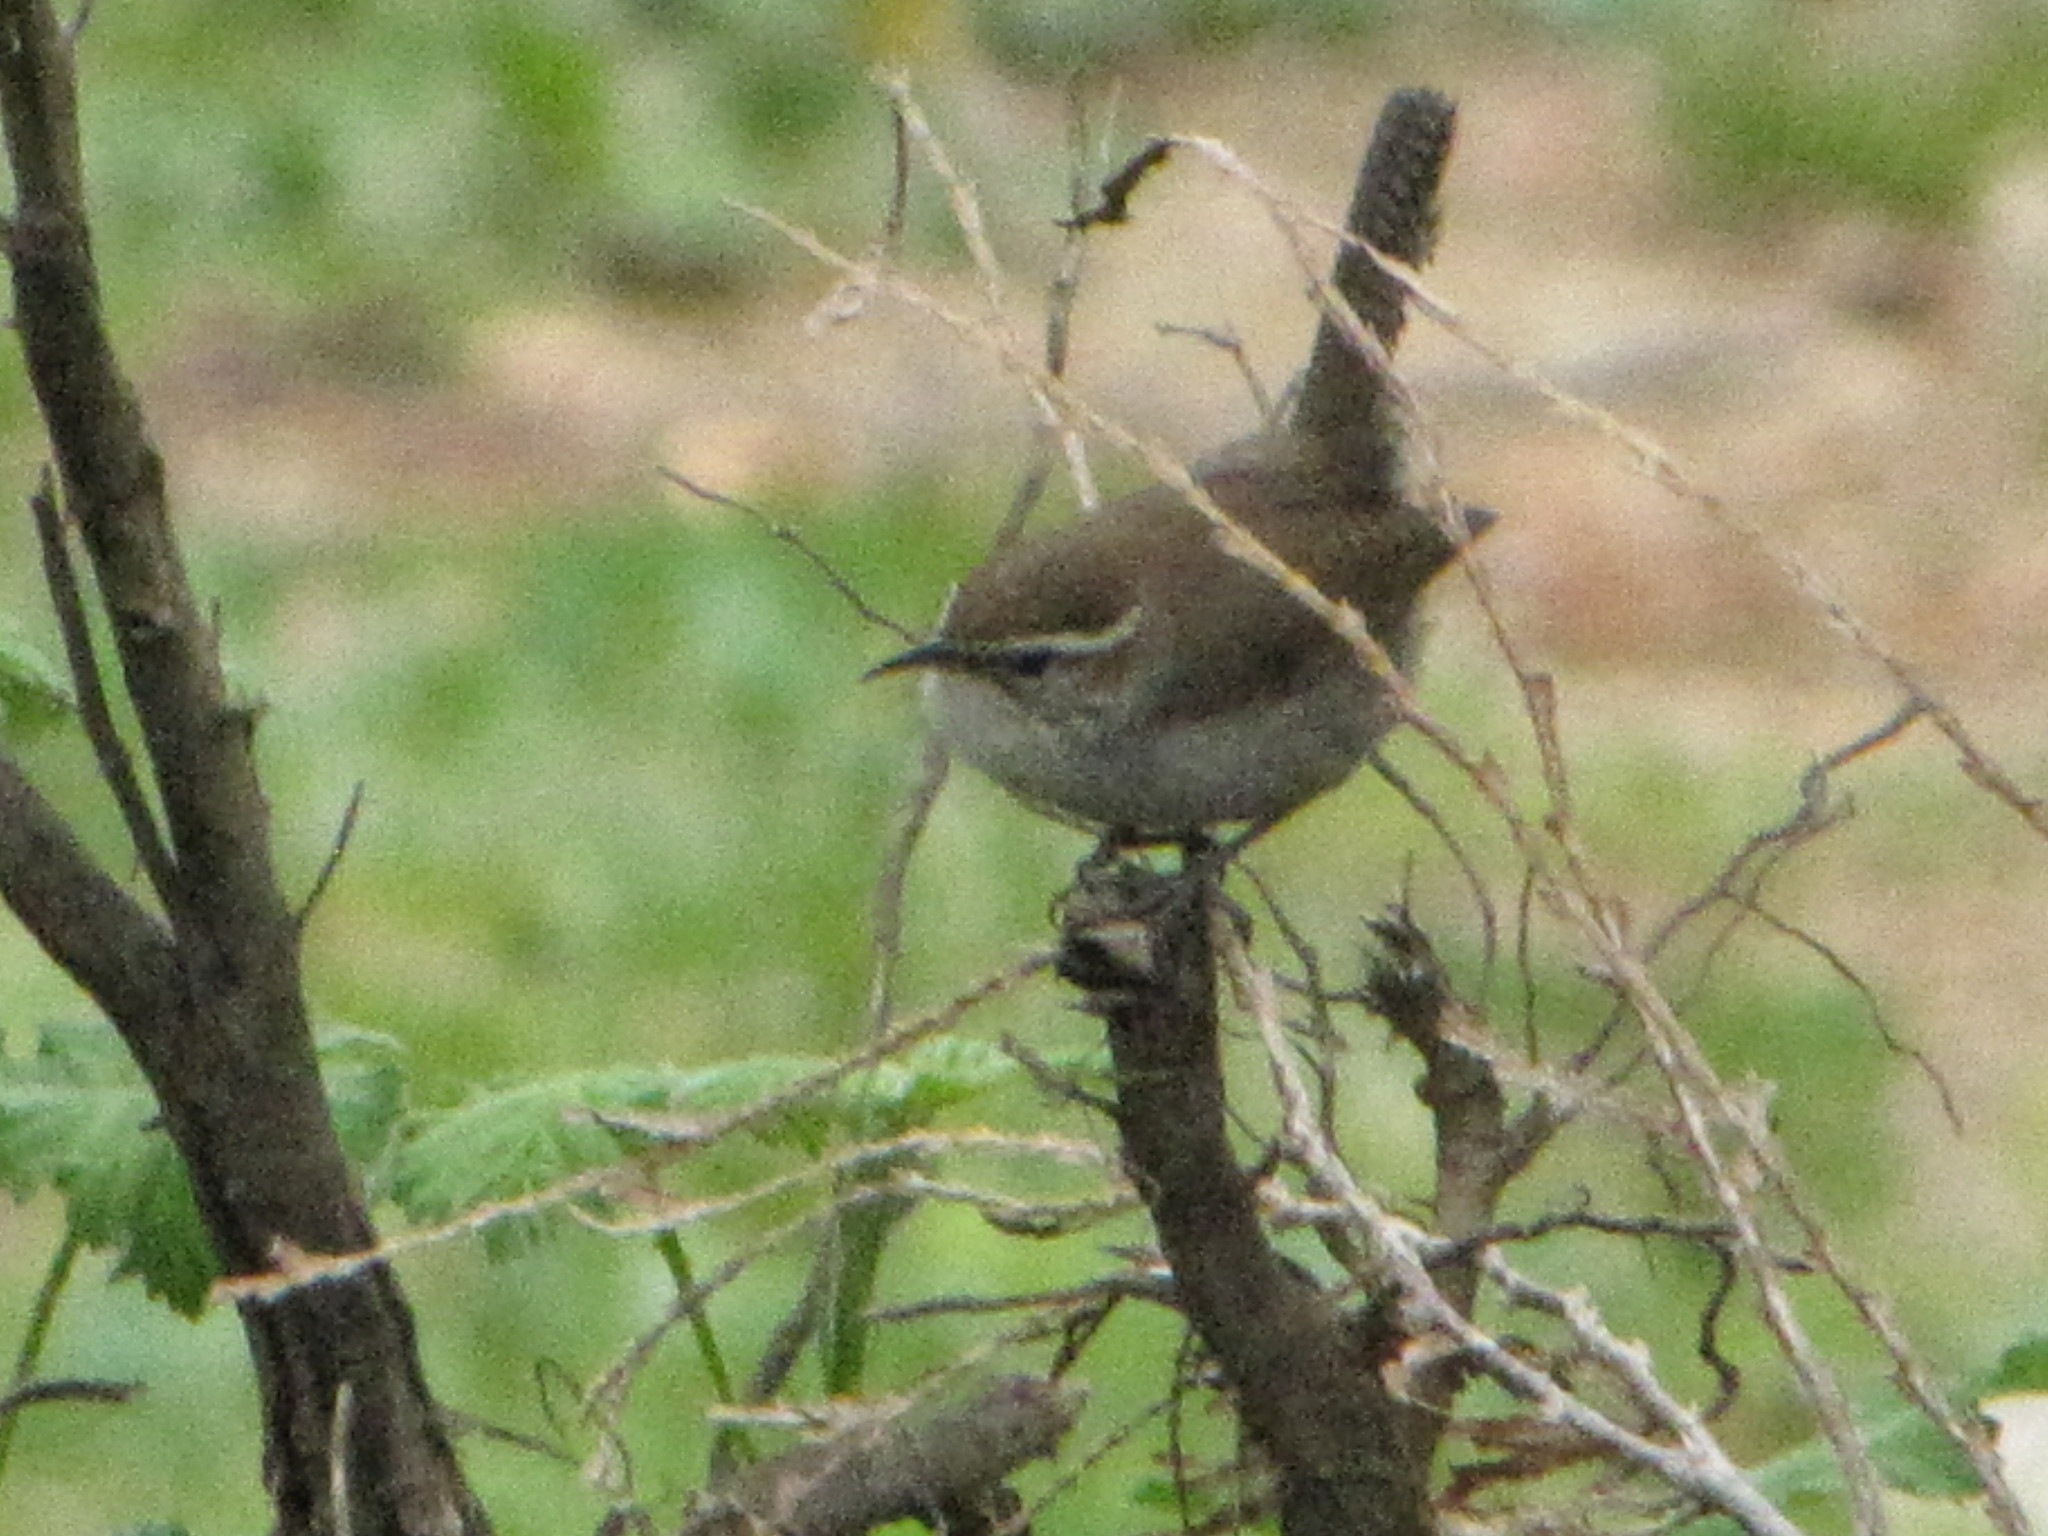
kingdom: Animalia
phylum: Chordata
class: Aves
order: Passeriformes
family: Troglodytidae
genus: Thryomanes
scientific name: Thryomanes bewickii
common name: Bewick's wren
